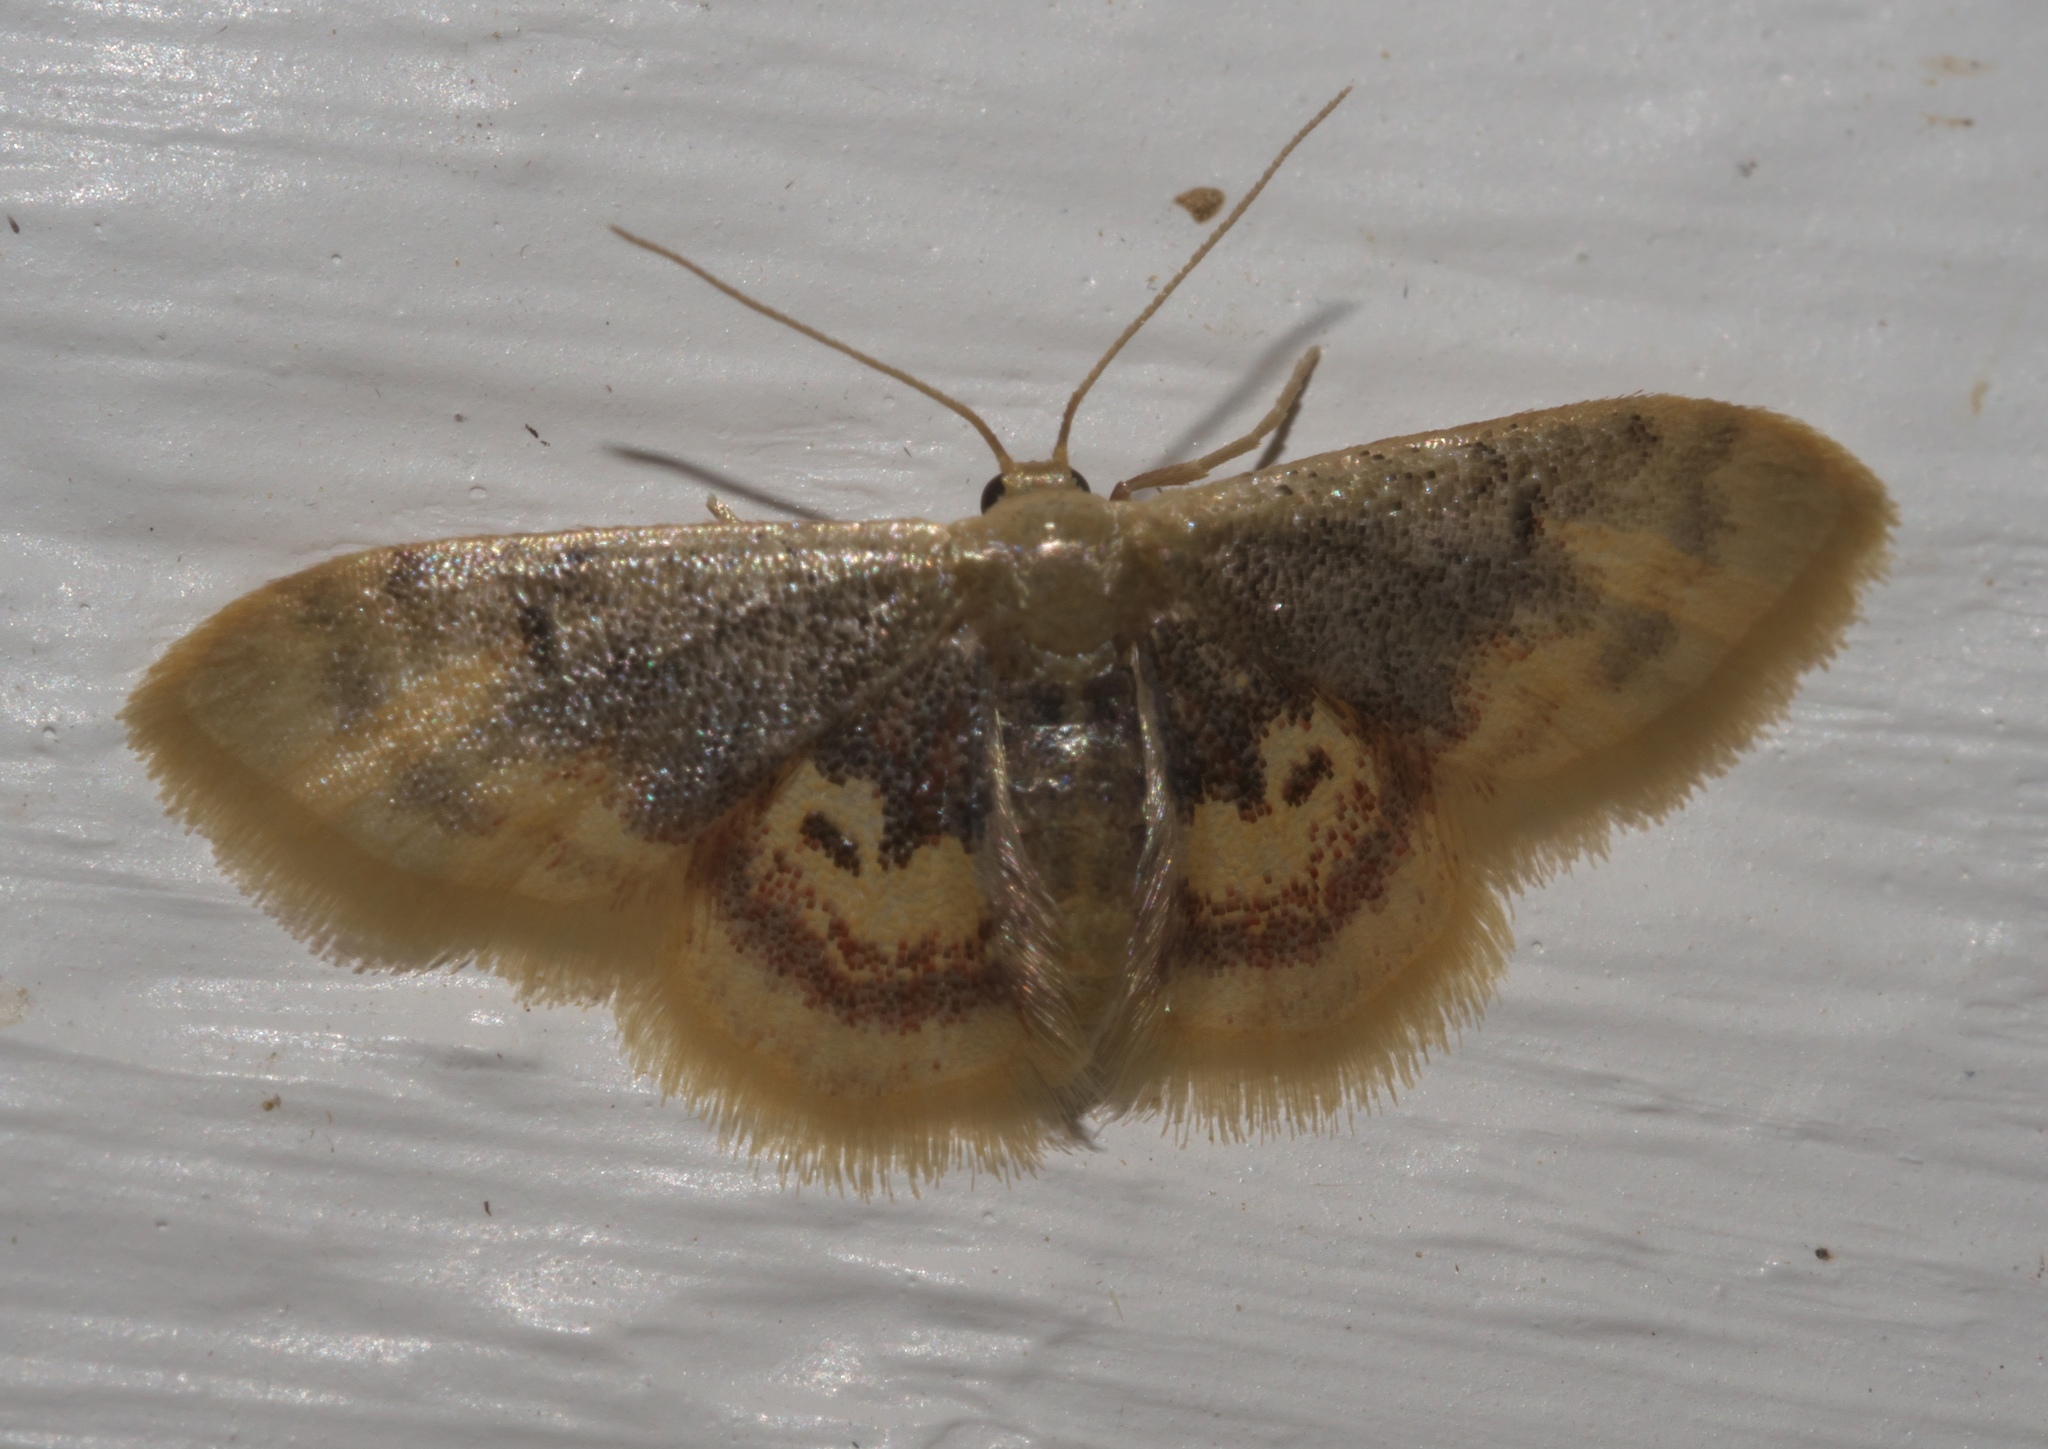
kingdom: Animalia
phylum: Arthropoda
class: Insecta
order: Lepidoptera
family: Geometridae
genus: Idaea
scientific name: Idaea scintillularia
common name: Diminutive wave
